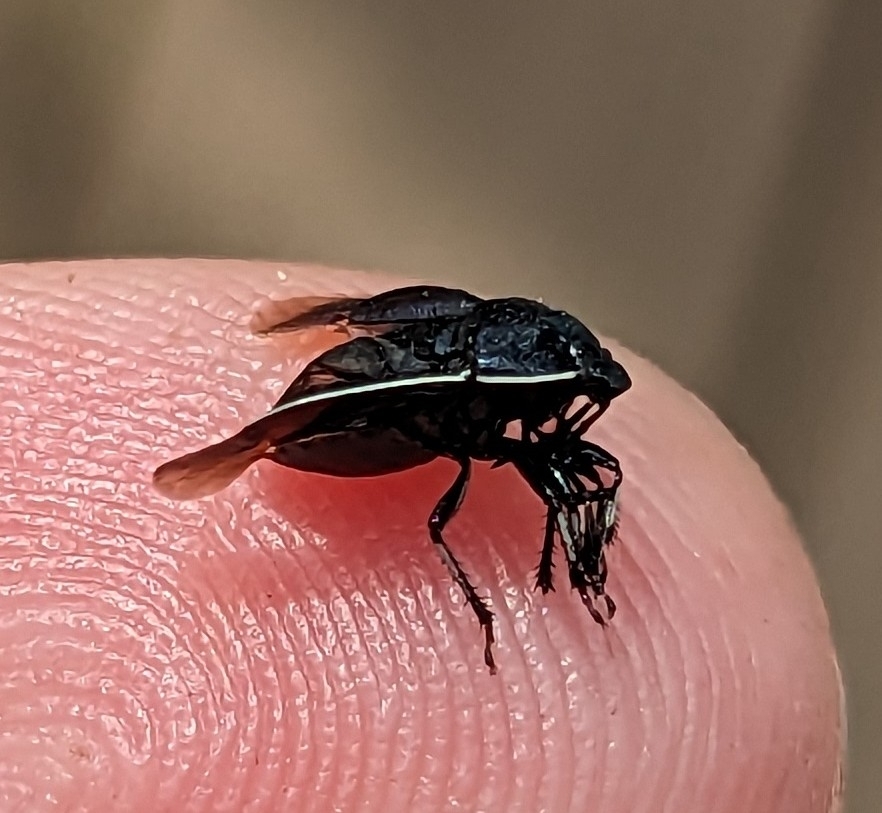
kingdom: Animalia
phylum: Arthropoda
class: Insecta
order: Hemiptera
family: Cydnidae
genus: Sehirus
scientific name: Sehirus cinctus
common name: White-margined burrower bug
